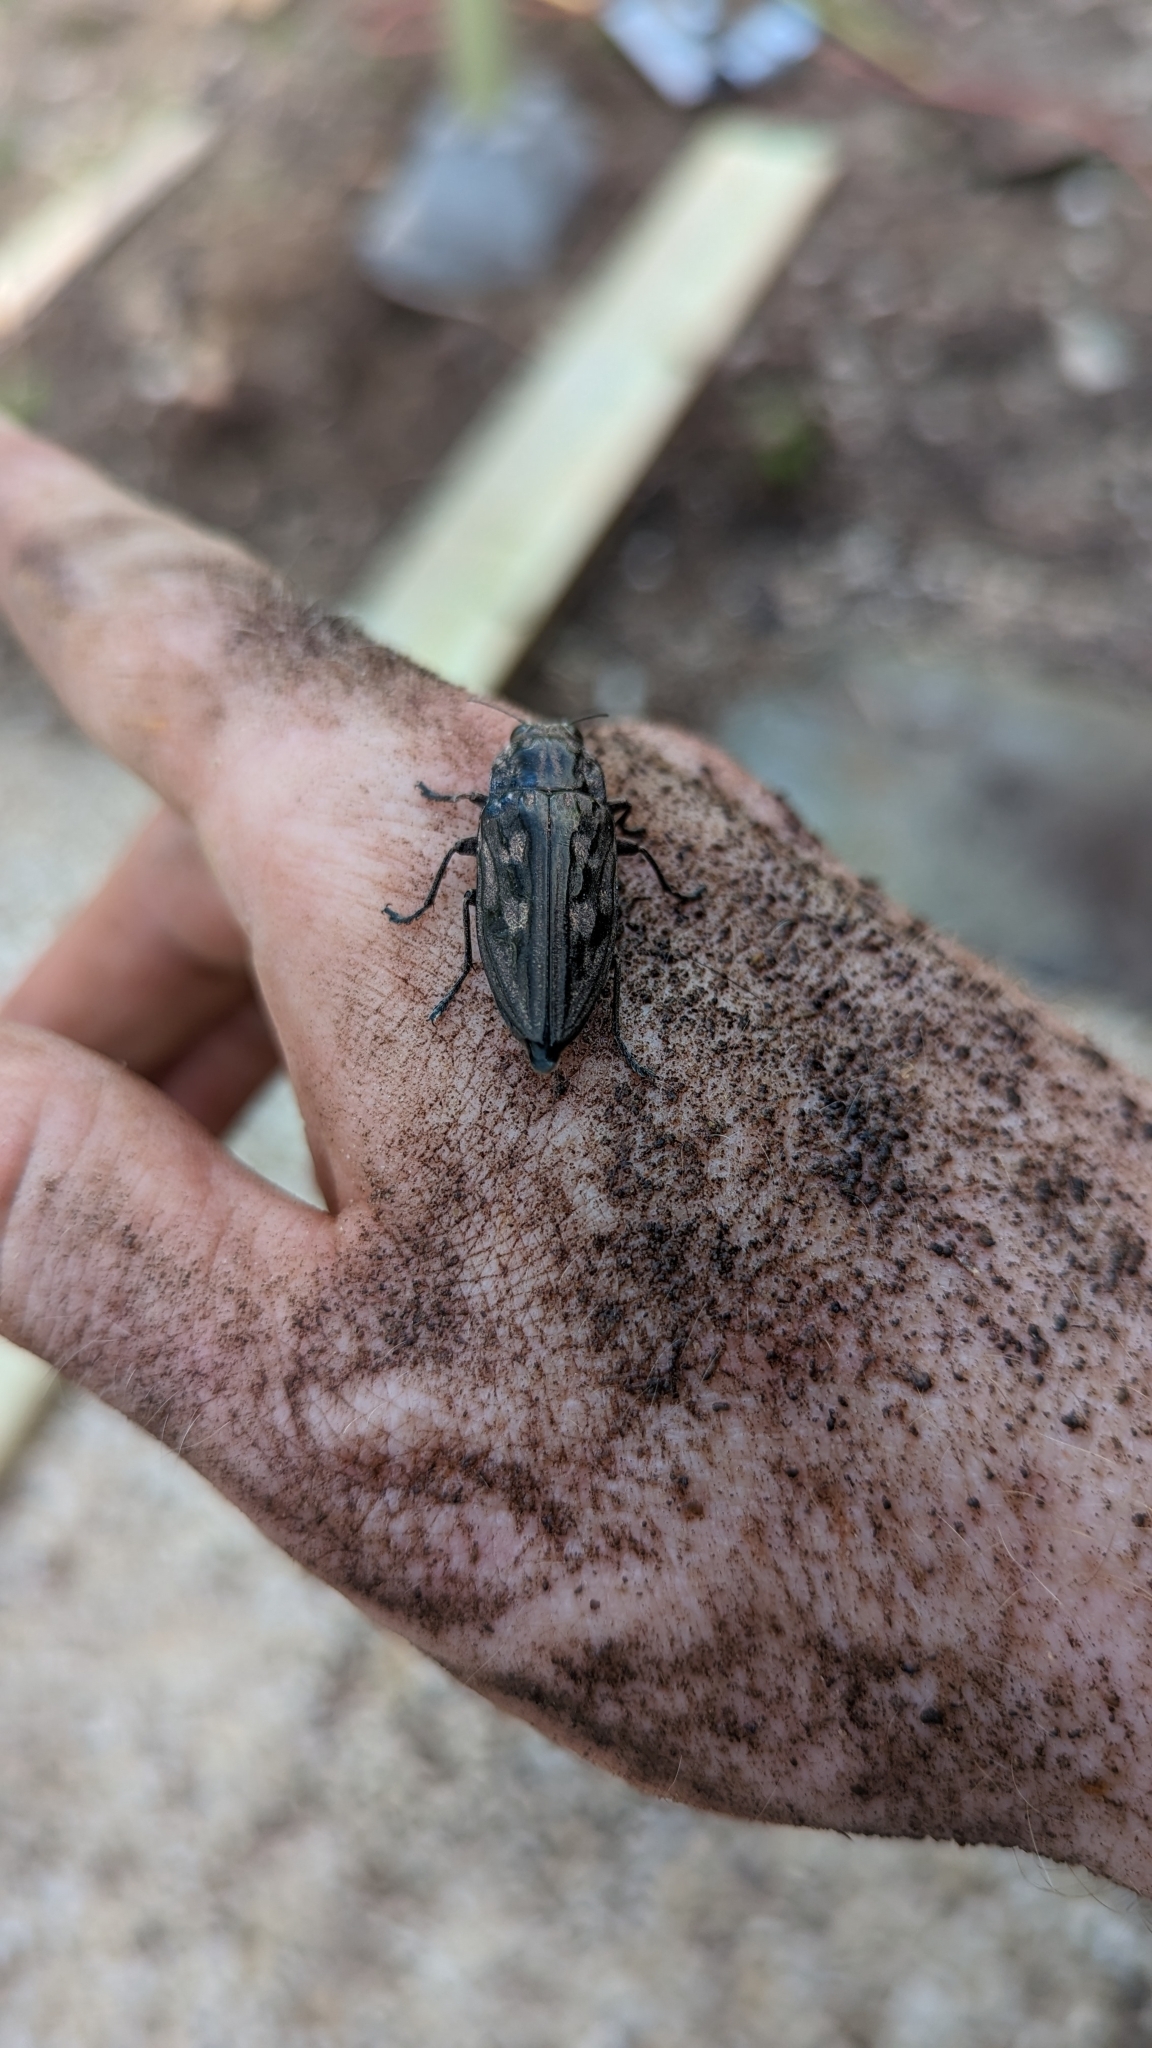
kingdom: Animalia
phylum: Arthropoda
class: Insecta
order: Coleoptera
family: Buprestidae
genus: Chalcophora
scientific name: Chalcophora virginiensis
